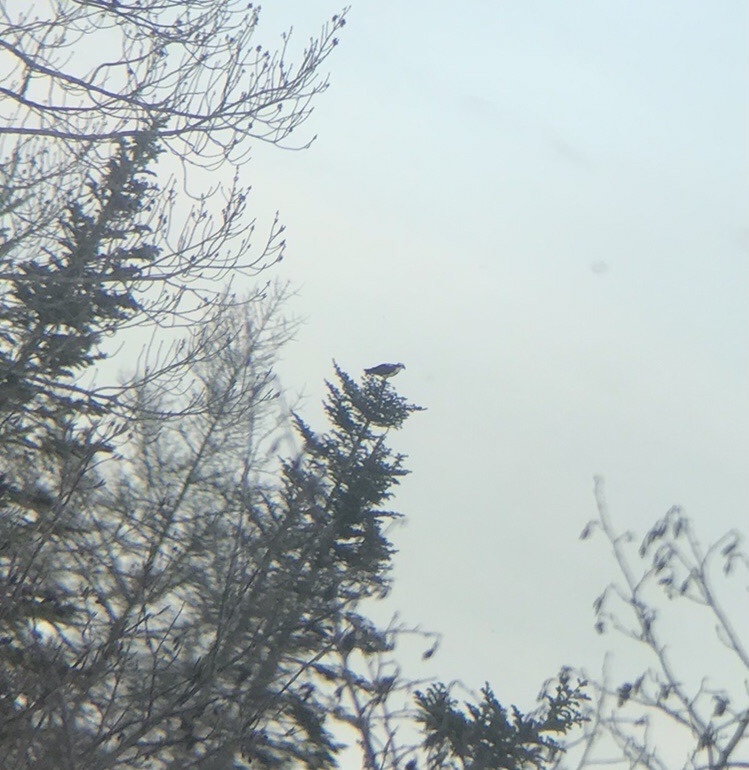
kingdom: Animalia
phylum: Chordata
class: Aves
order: Accipitriformes
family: Pandionidae
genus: Pandion
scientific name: Pandion haliaetus
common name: Osprey
